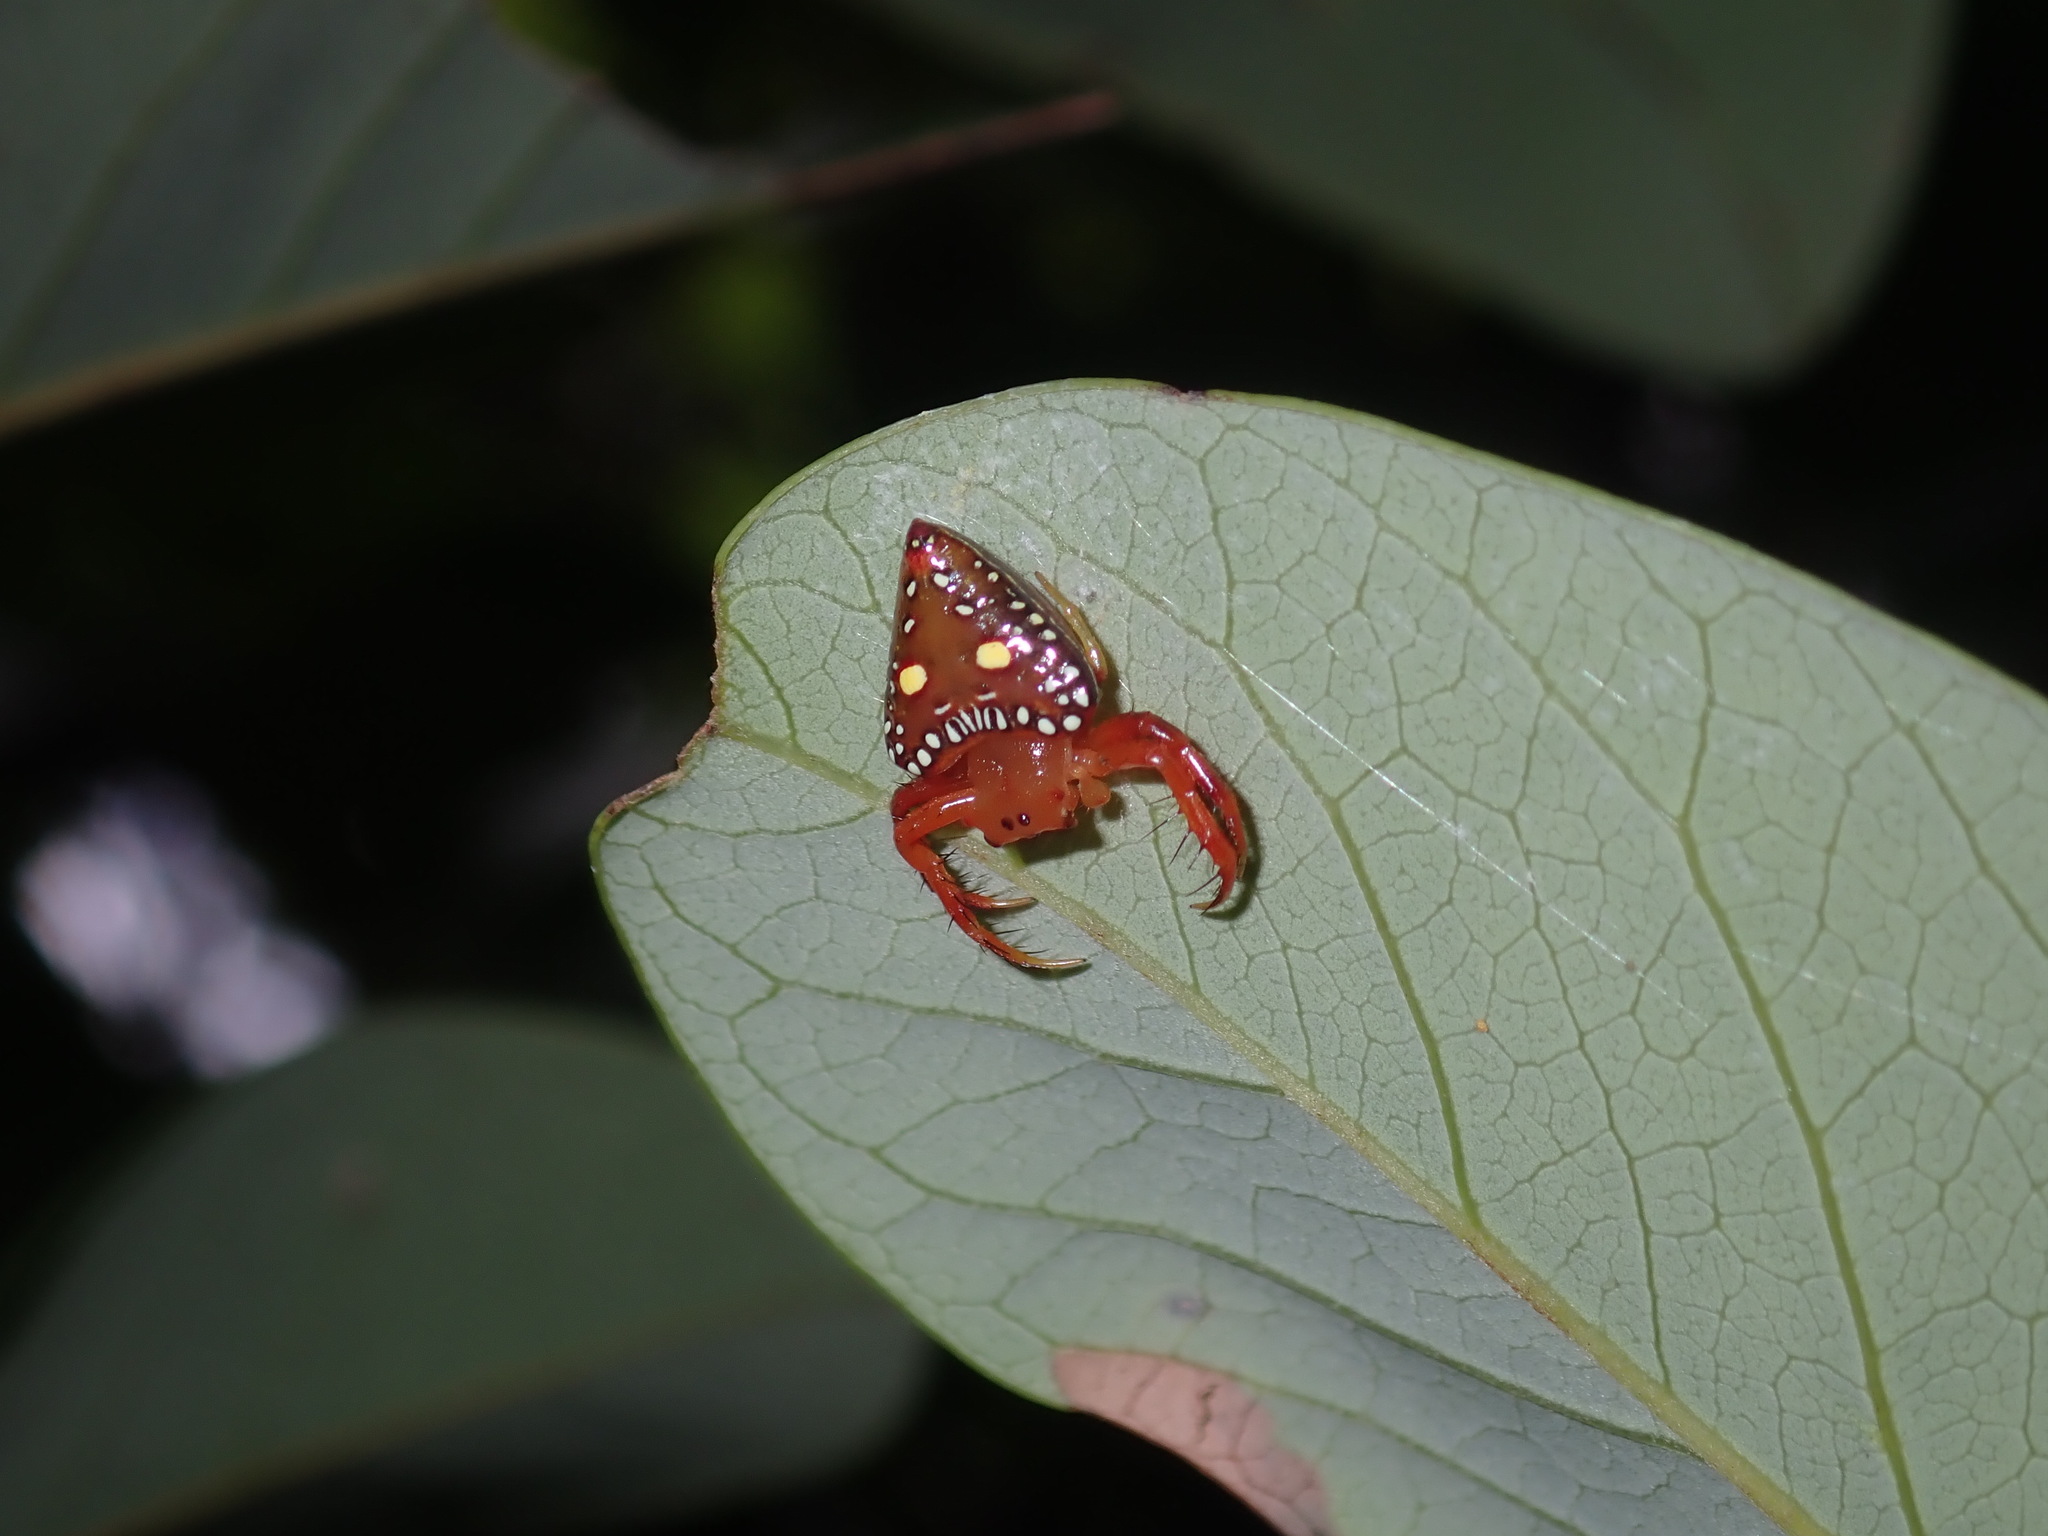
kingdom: Animalia
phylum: Arthropoda
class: Arachnida
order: Araneae
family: Arkyidae
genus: Arkys
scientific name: Arkys lancearius
